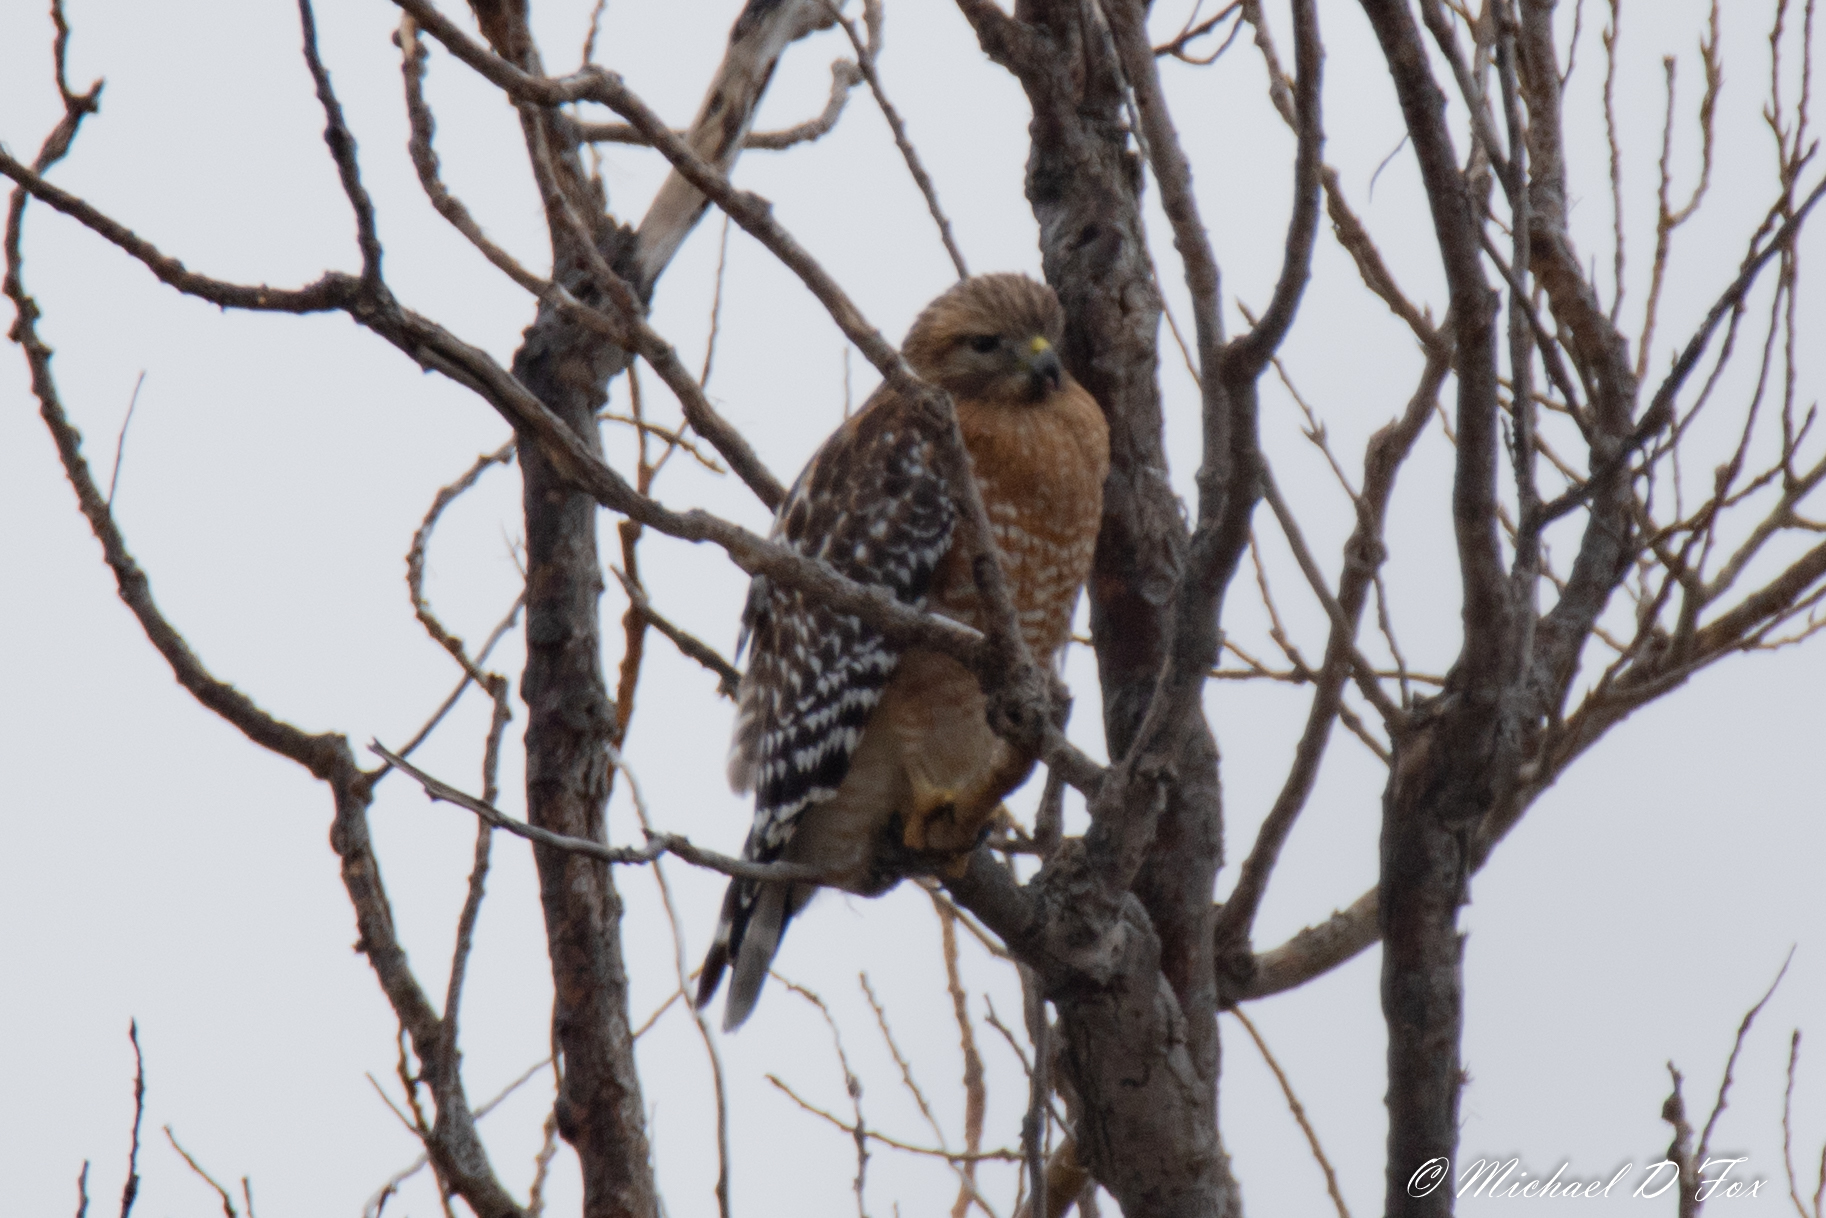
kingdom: Animalia
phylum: Chordata
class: Aves
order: Accipitriformes
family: Accipitridae
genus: Buteo
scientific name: Buteo lineatus
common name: Red-shouldered hawk
